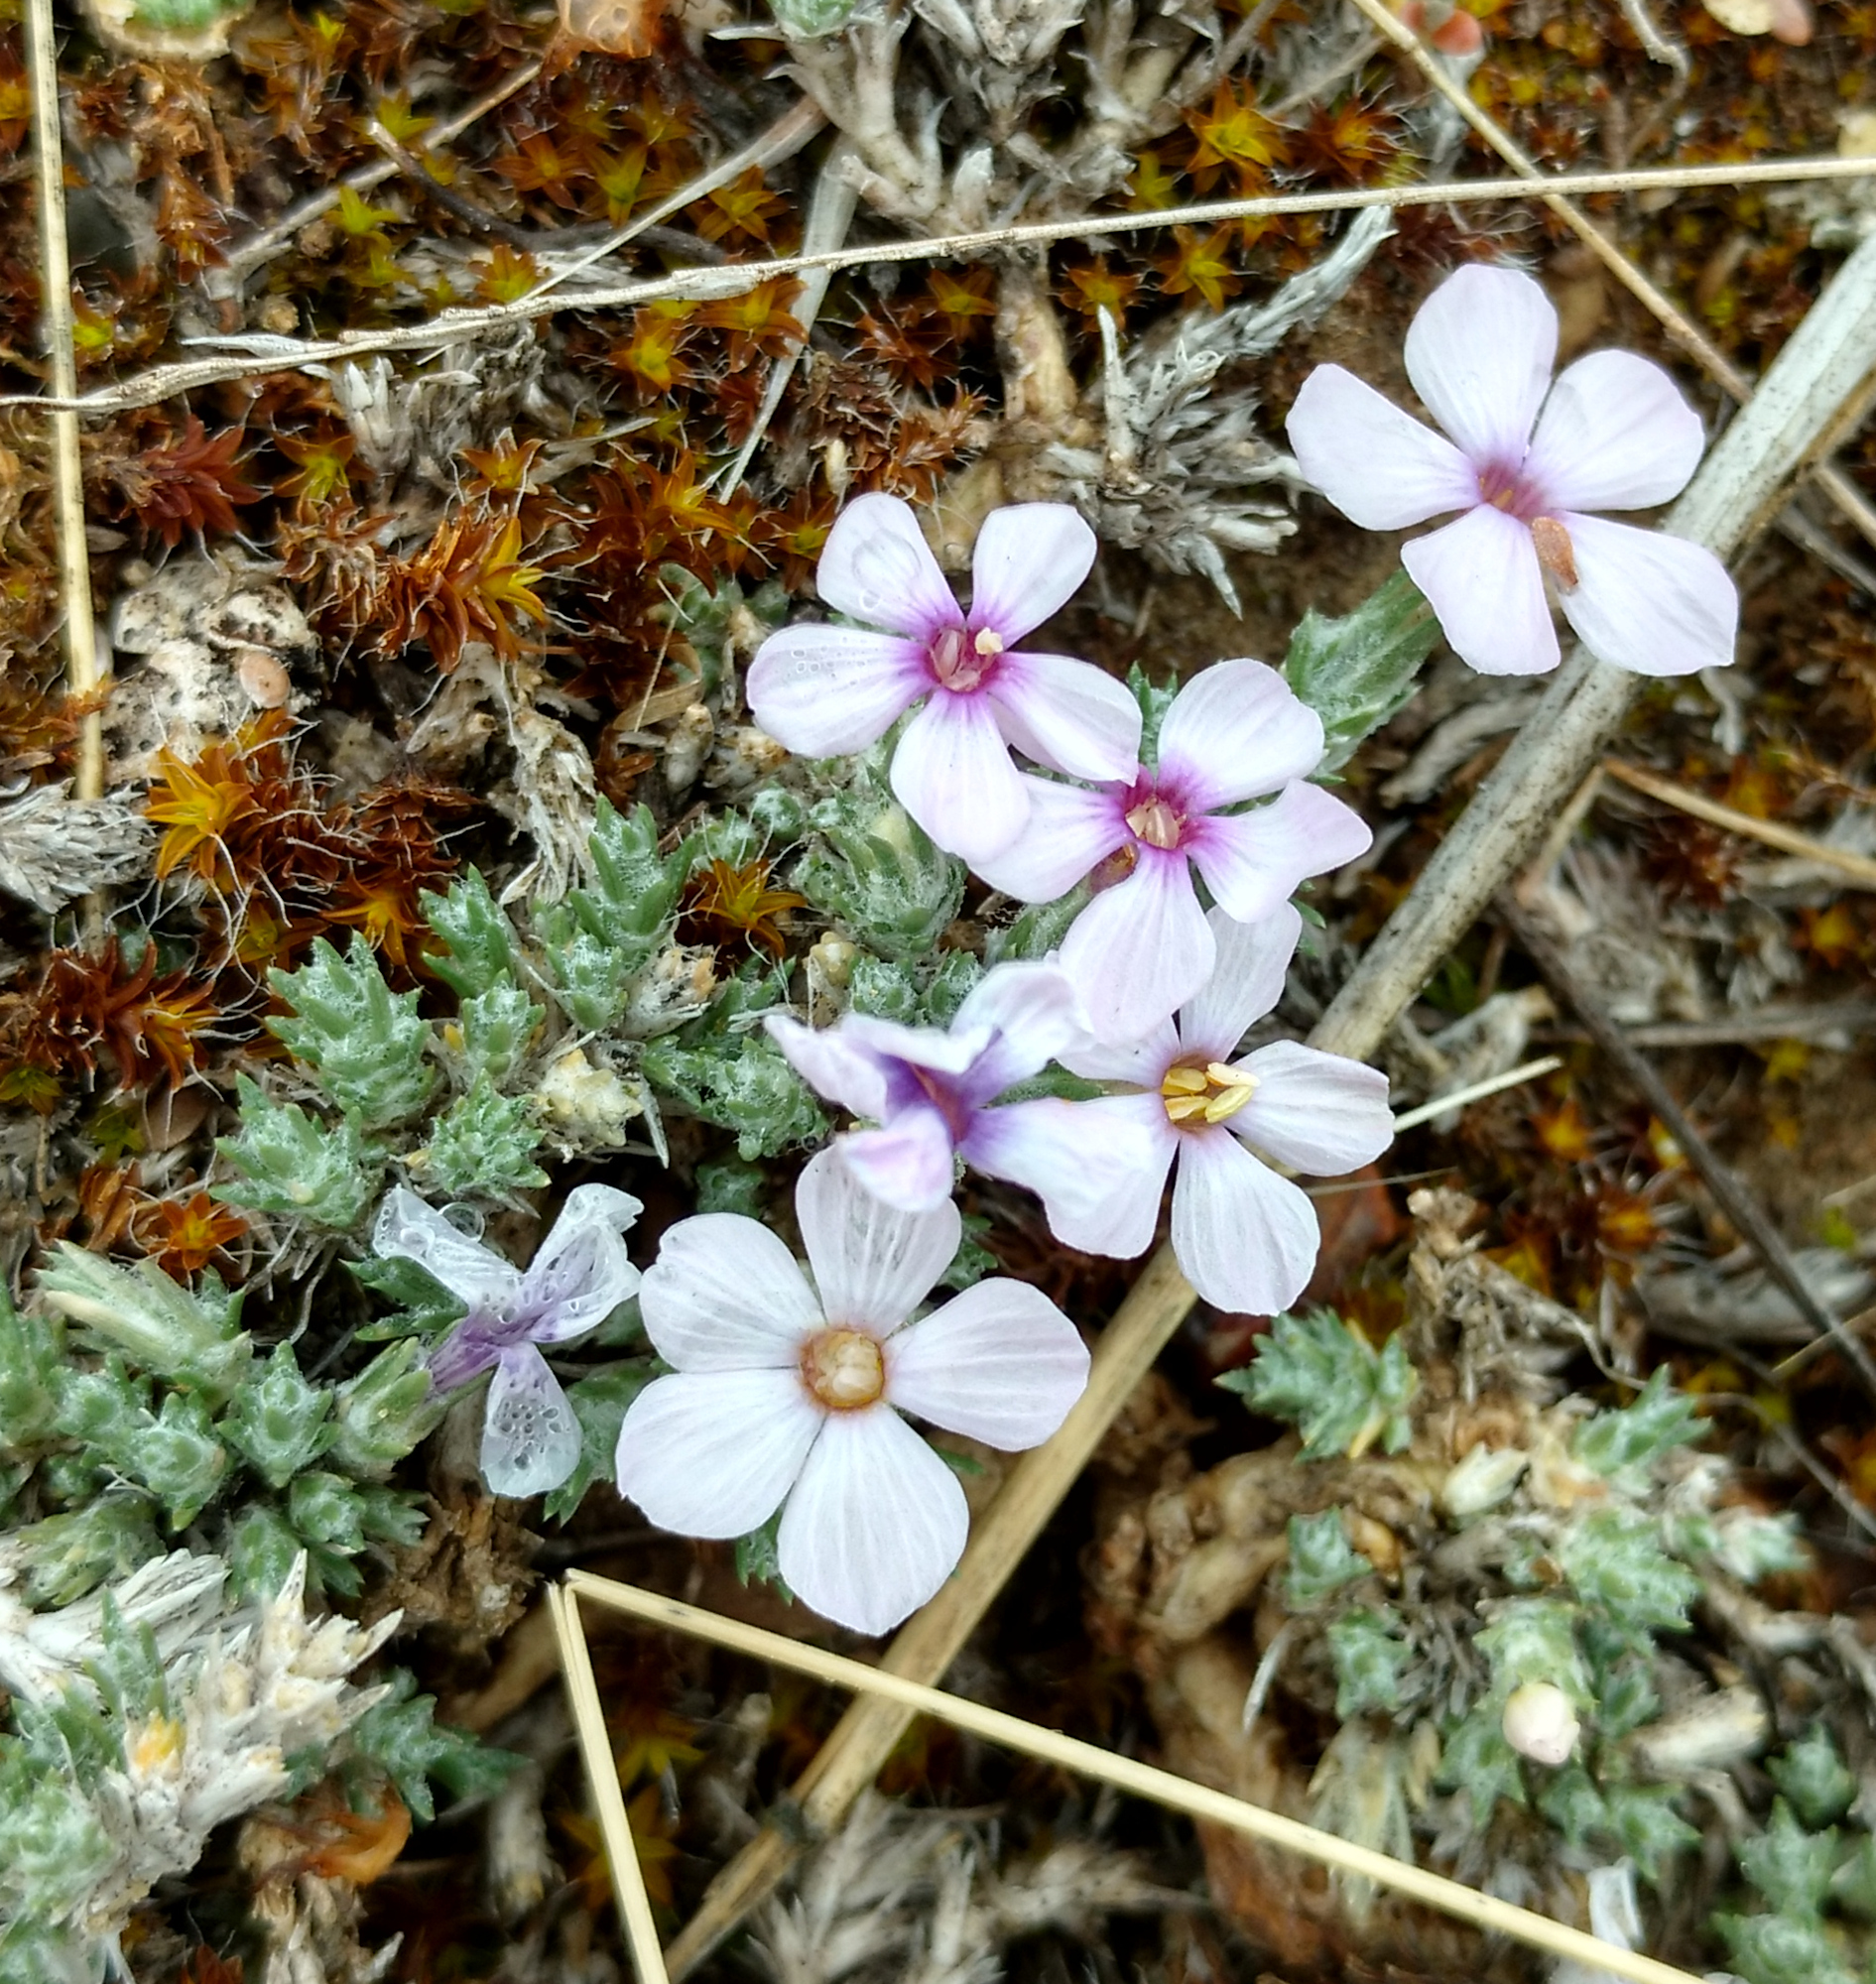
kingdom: Plantae
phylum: Tracheophyta
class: Magnoliopsida
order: Ericales
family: Polemoniaceae
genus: Phlox
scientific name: Phlox hoodii
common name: Moss phlox
